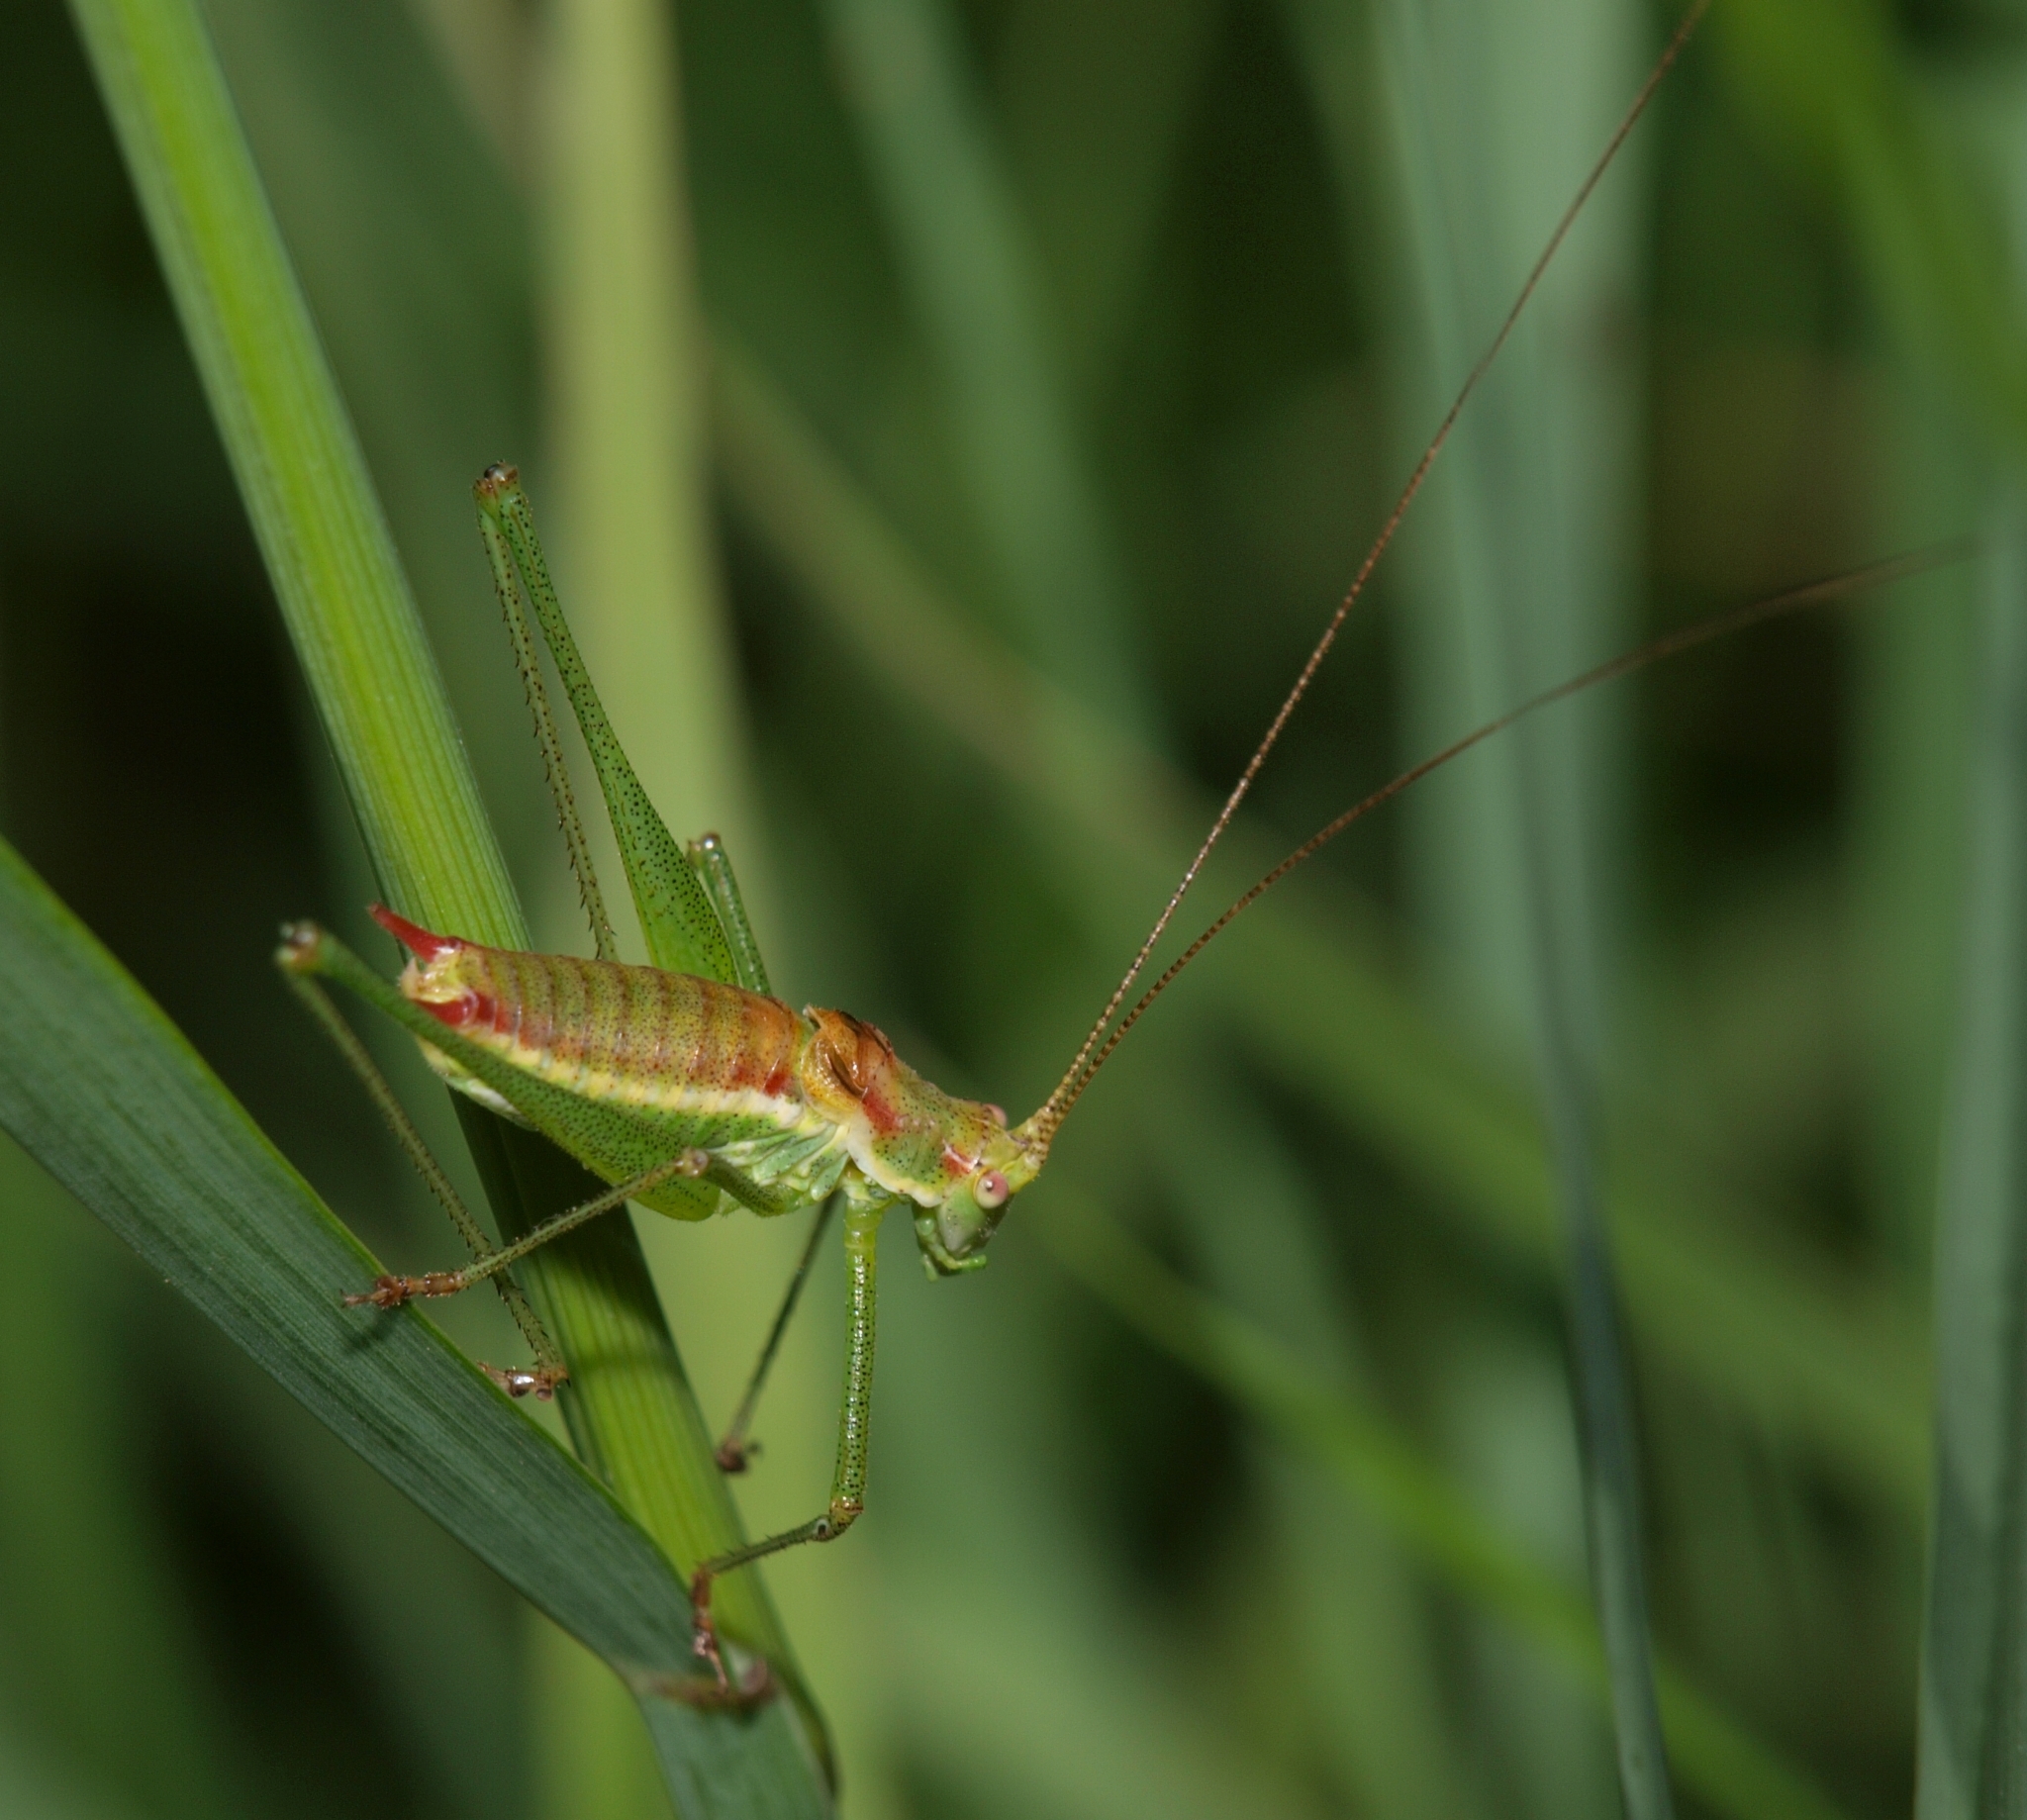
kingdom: Animalia
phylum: Arthropoda
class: Insecta
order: Orthoptera
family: Tettigoniidae
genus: Leptophyes
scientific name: Leptophyes albovittata
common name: Striped bush-cricket
